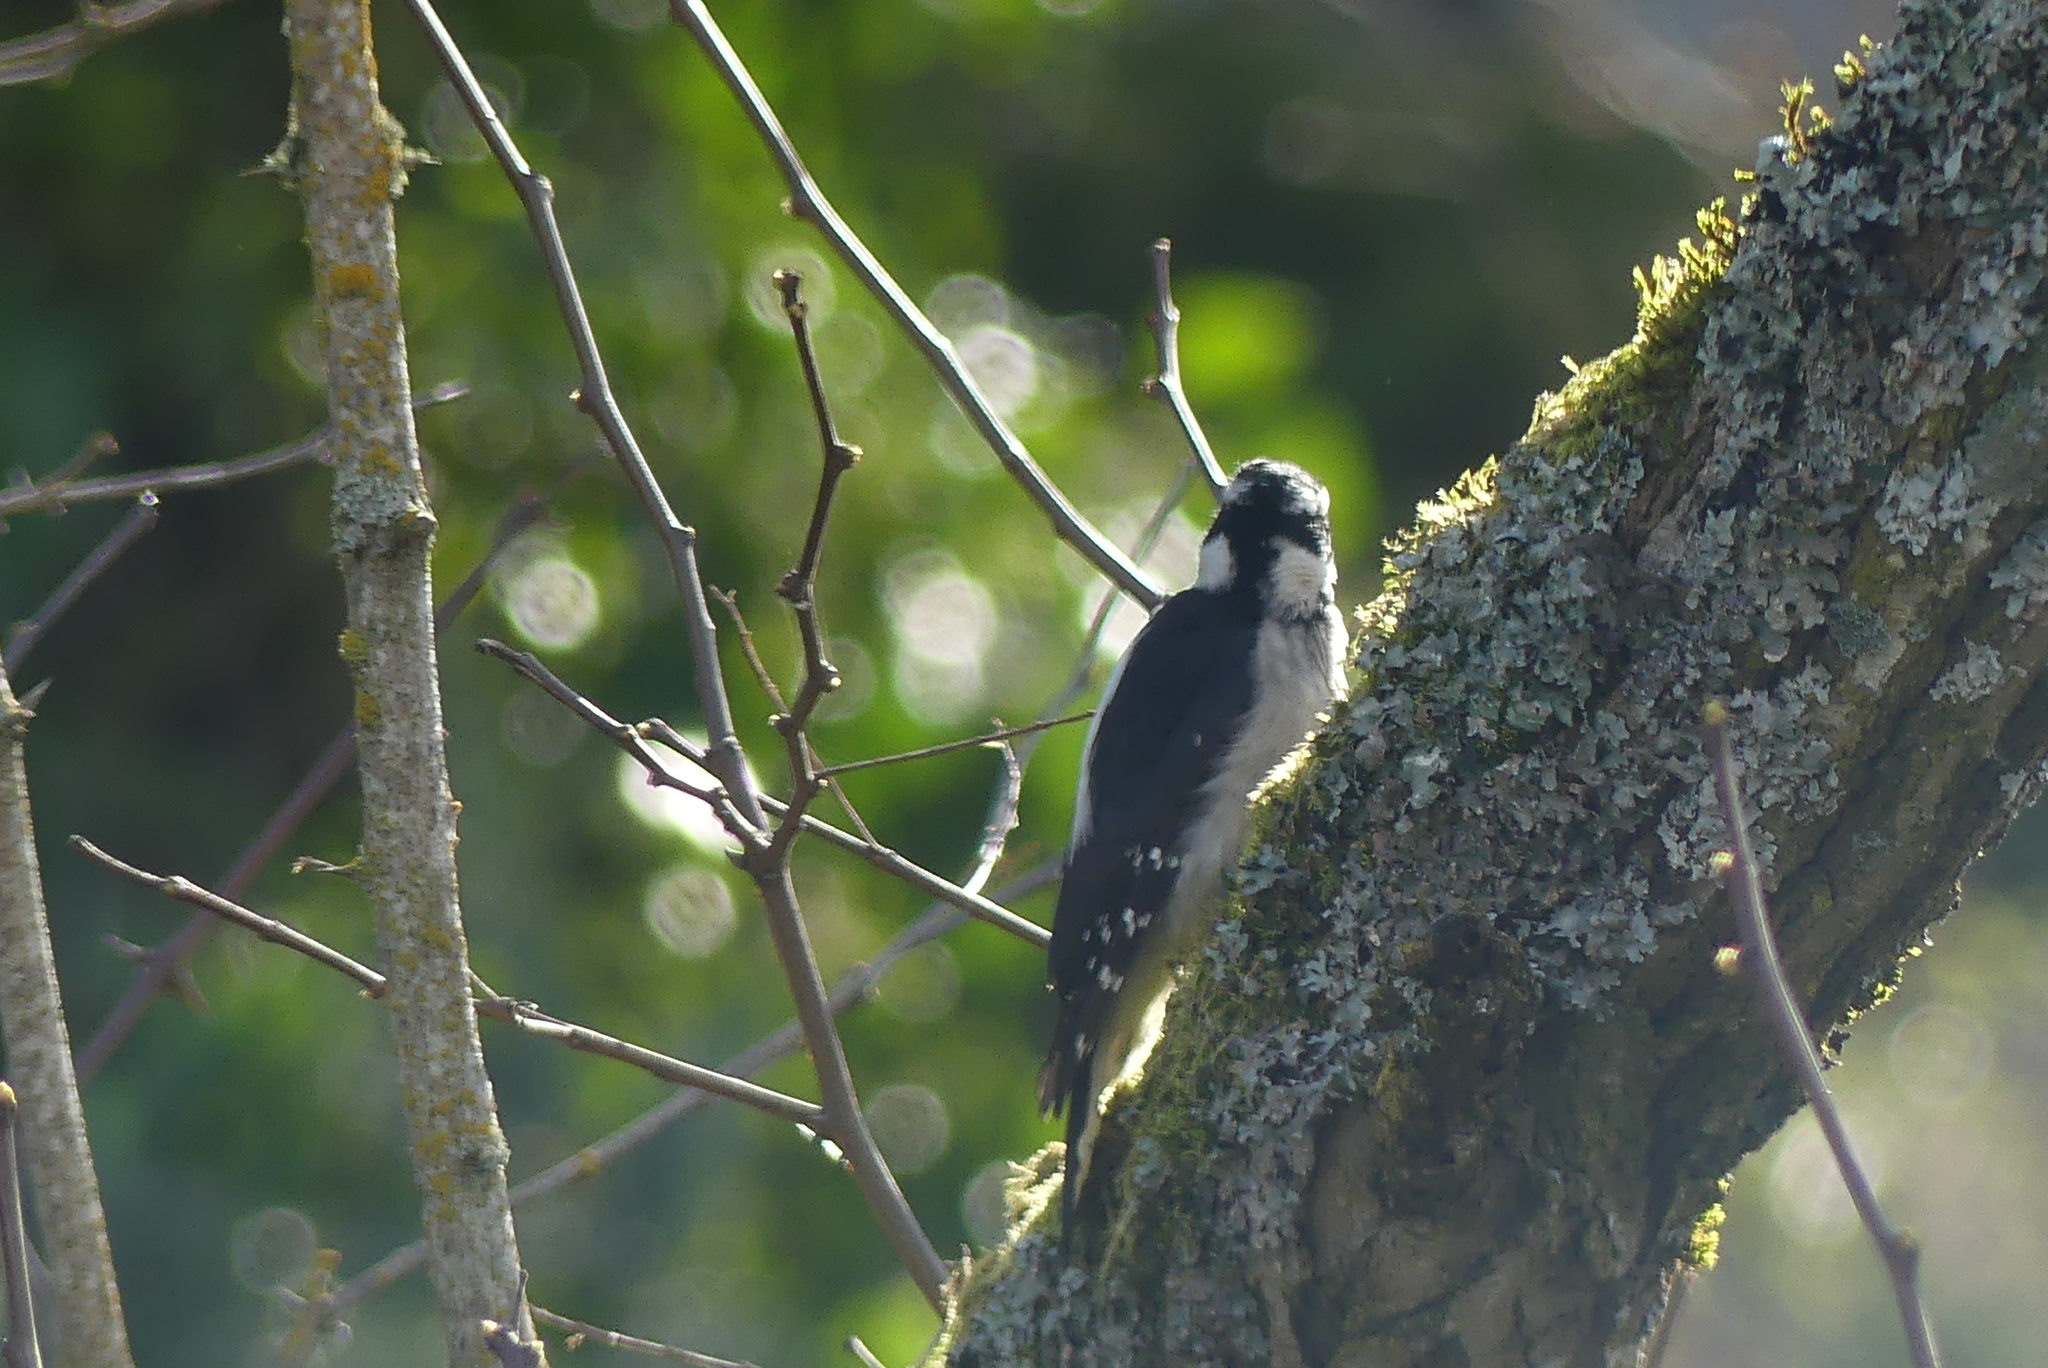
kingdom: Animalia
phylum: Chordata
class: Aves
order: Piciformes
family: Picidae
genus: Dryobates
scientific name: Dryobates pubescens
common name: Downy woodpecker
